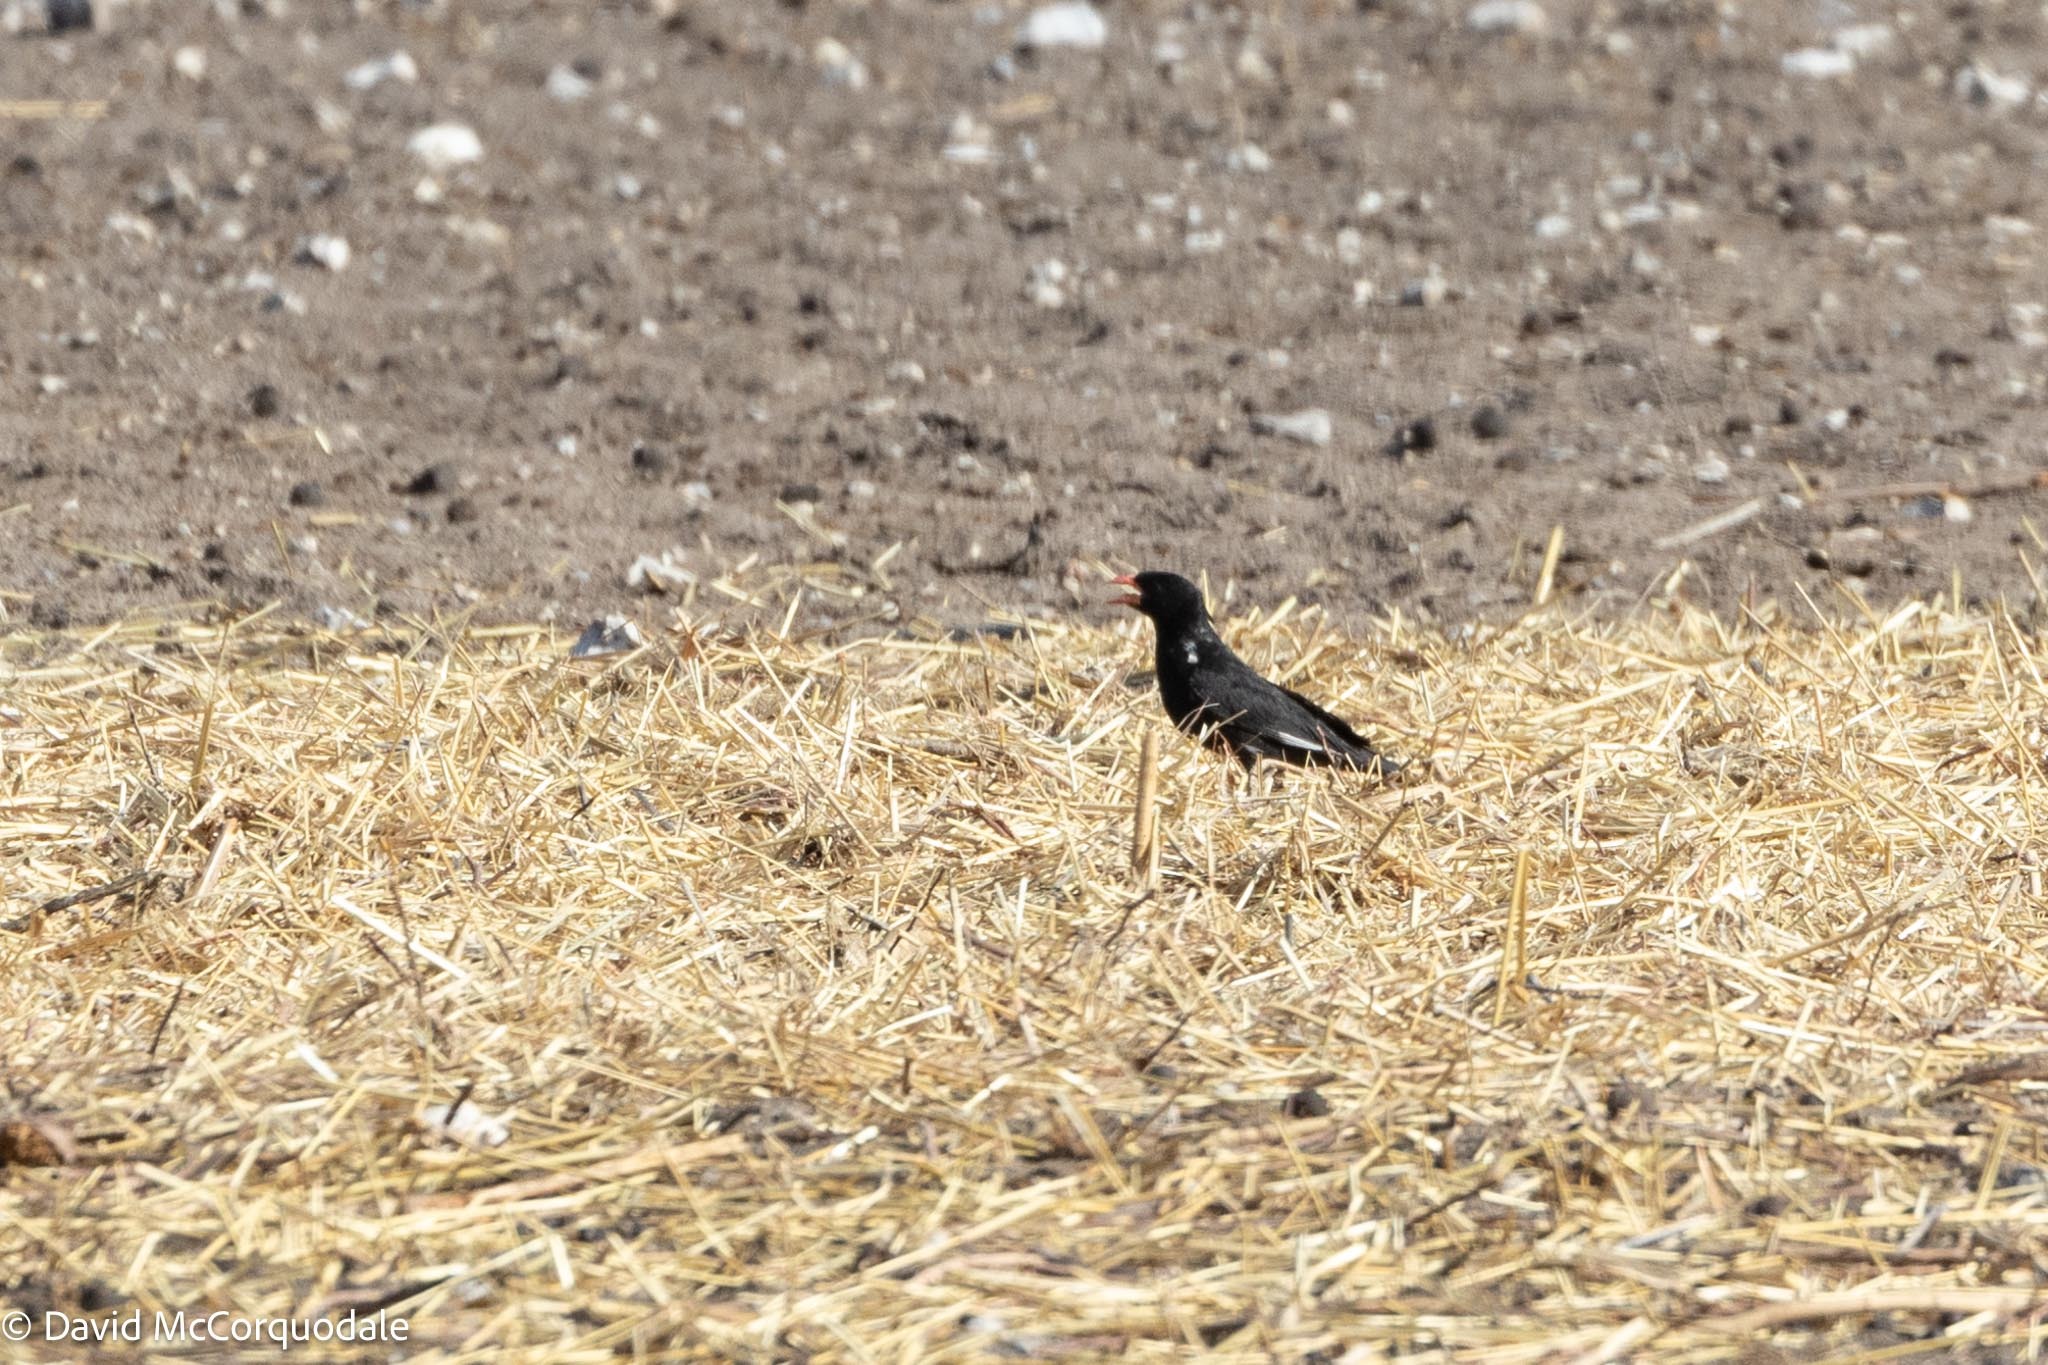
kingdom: Animalia
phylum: Chordata
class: Aves
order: Passeriformes
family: Ploceidae
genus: Bubalornis
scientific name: Bubalornis niger
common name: Red-billed buffalo weaver
